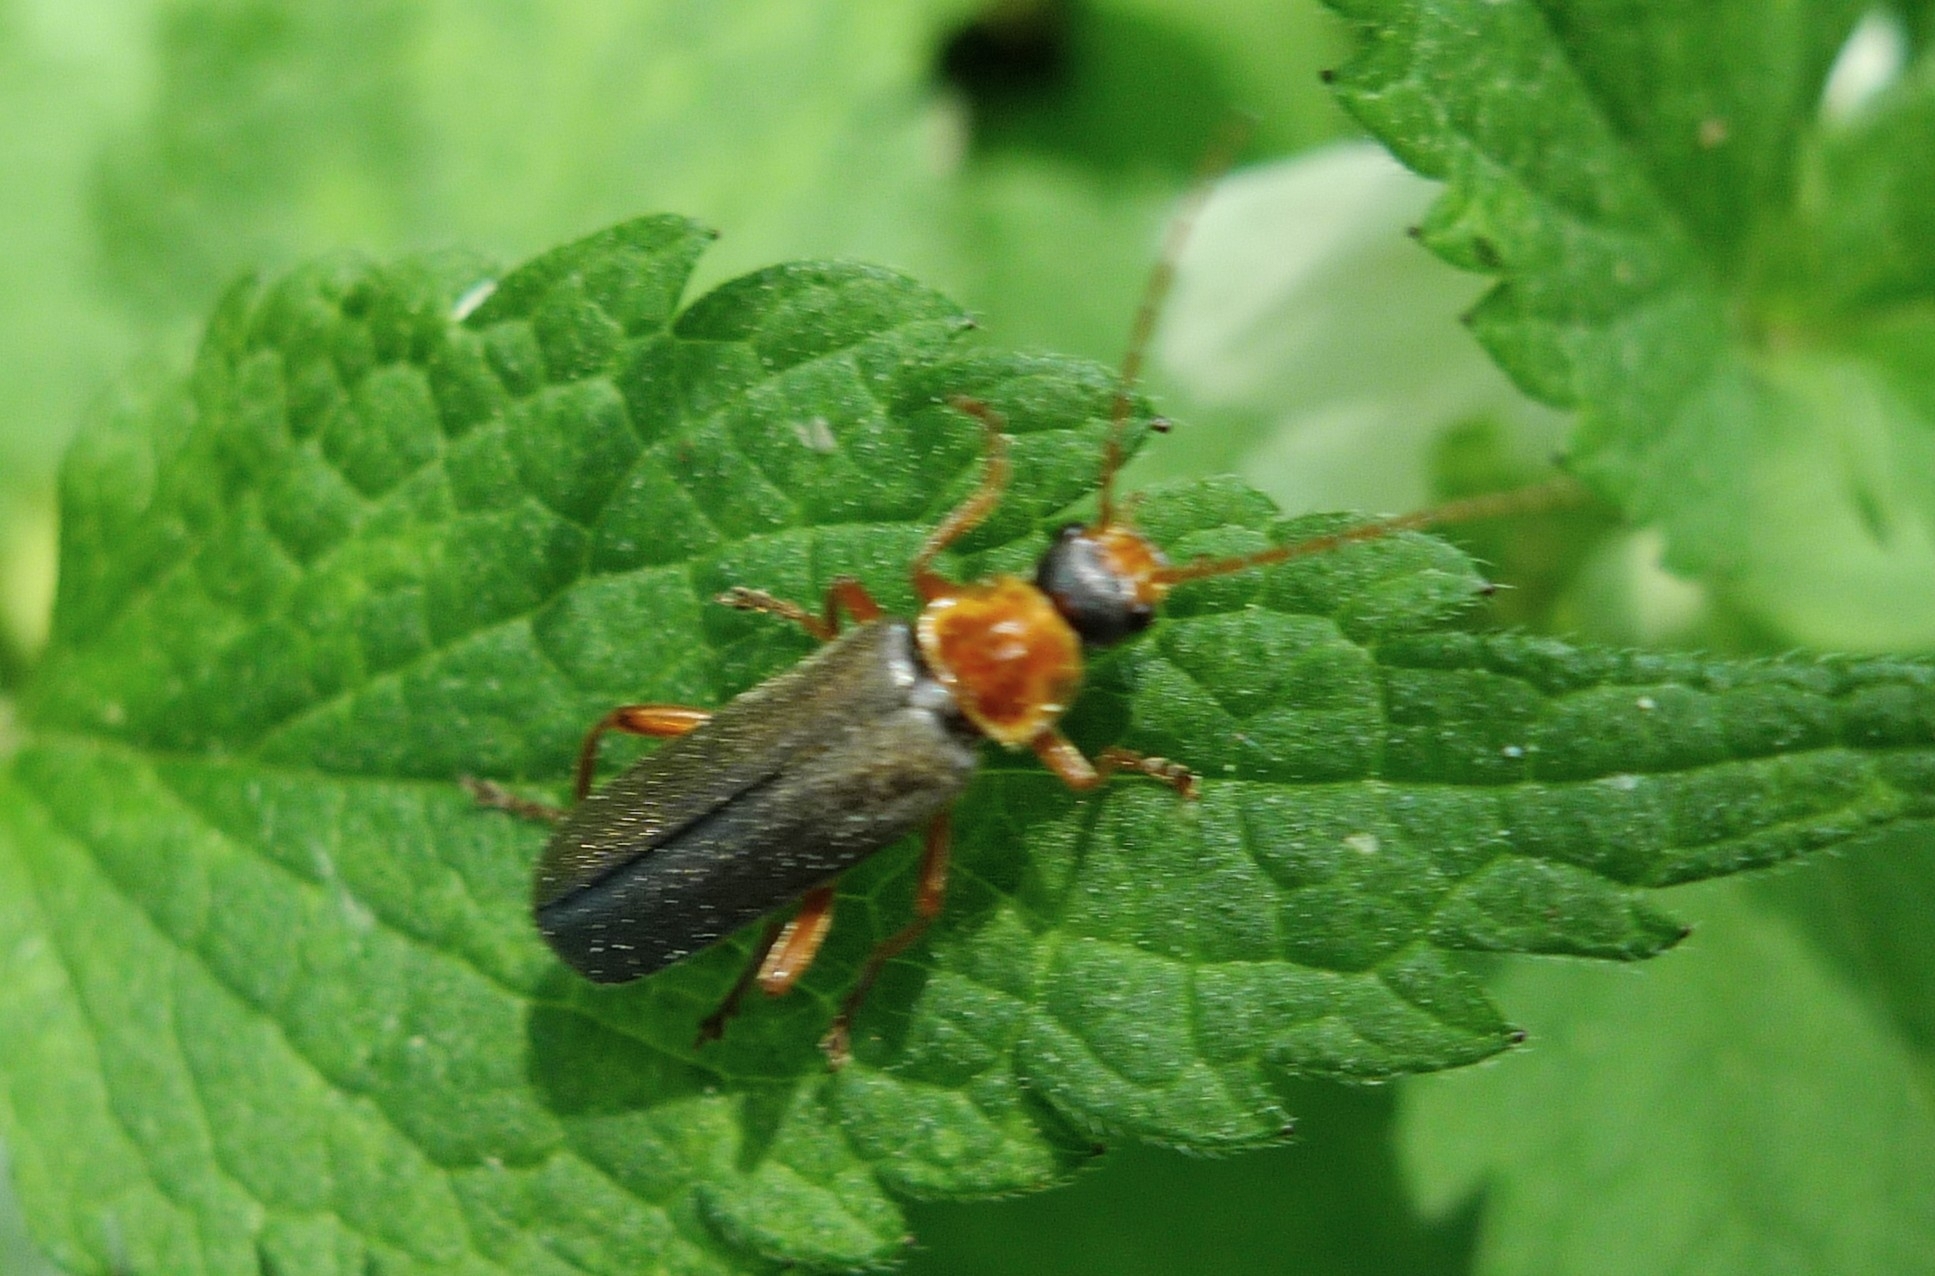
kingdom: Animalia
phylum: Arthropoda
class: Insecta
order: Coleoptera
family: Cantharidae
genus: Cantharis
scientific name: Cantharis nigricans
